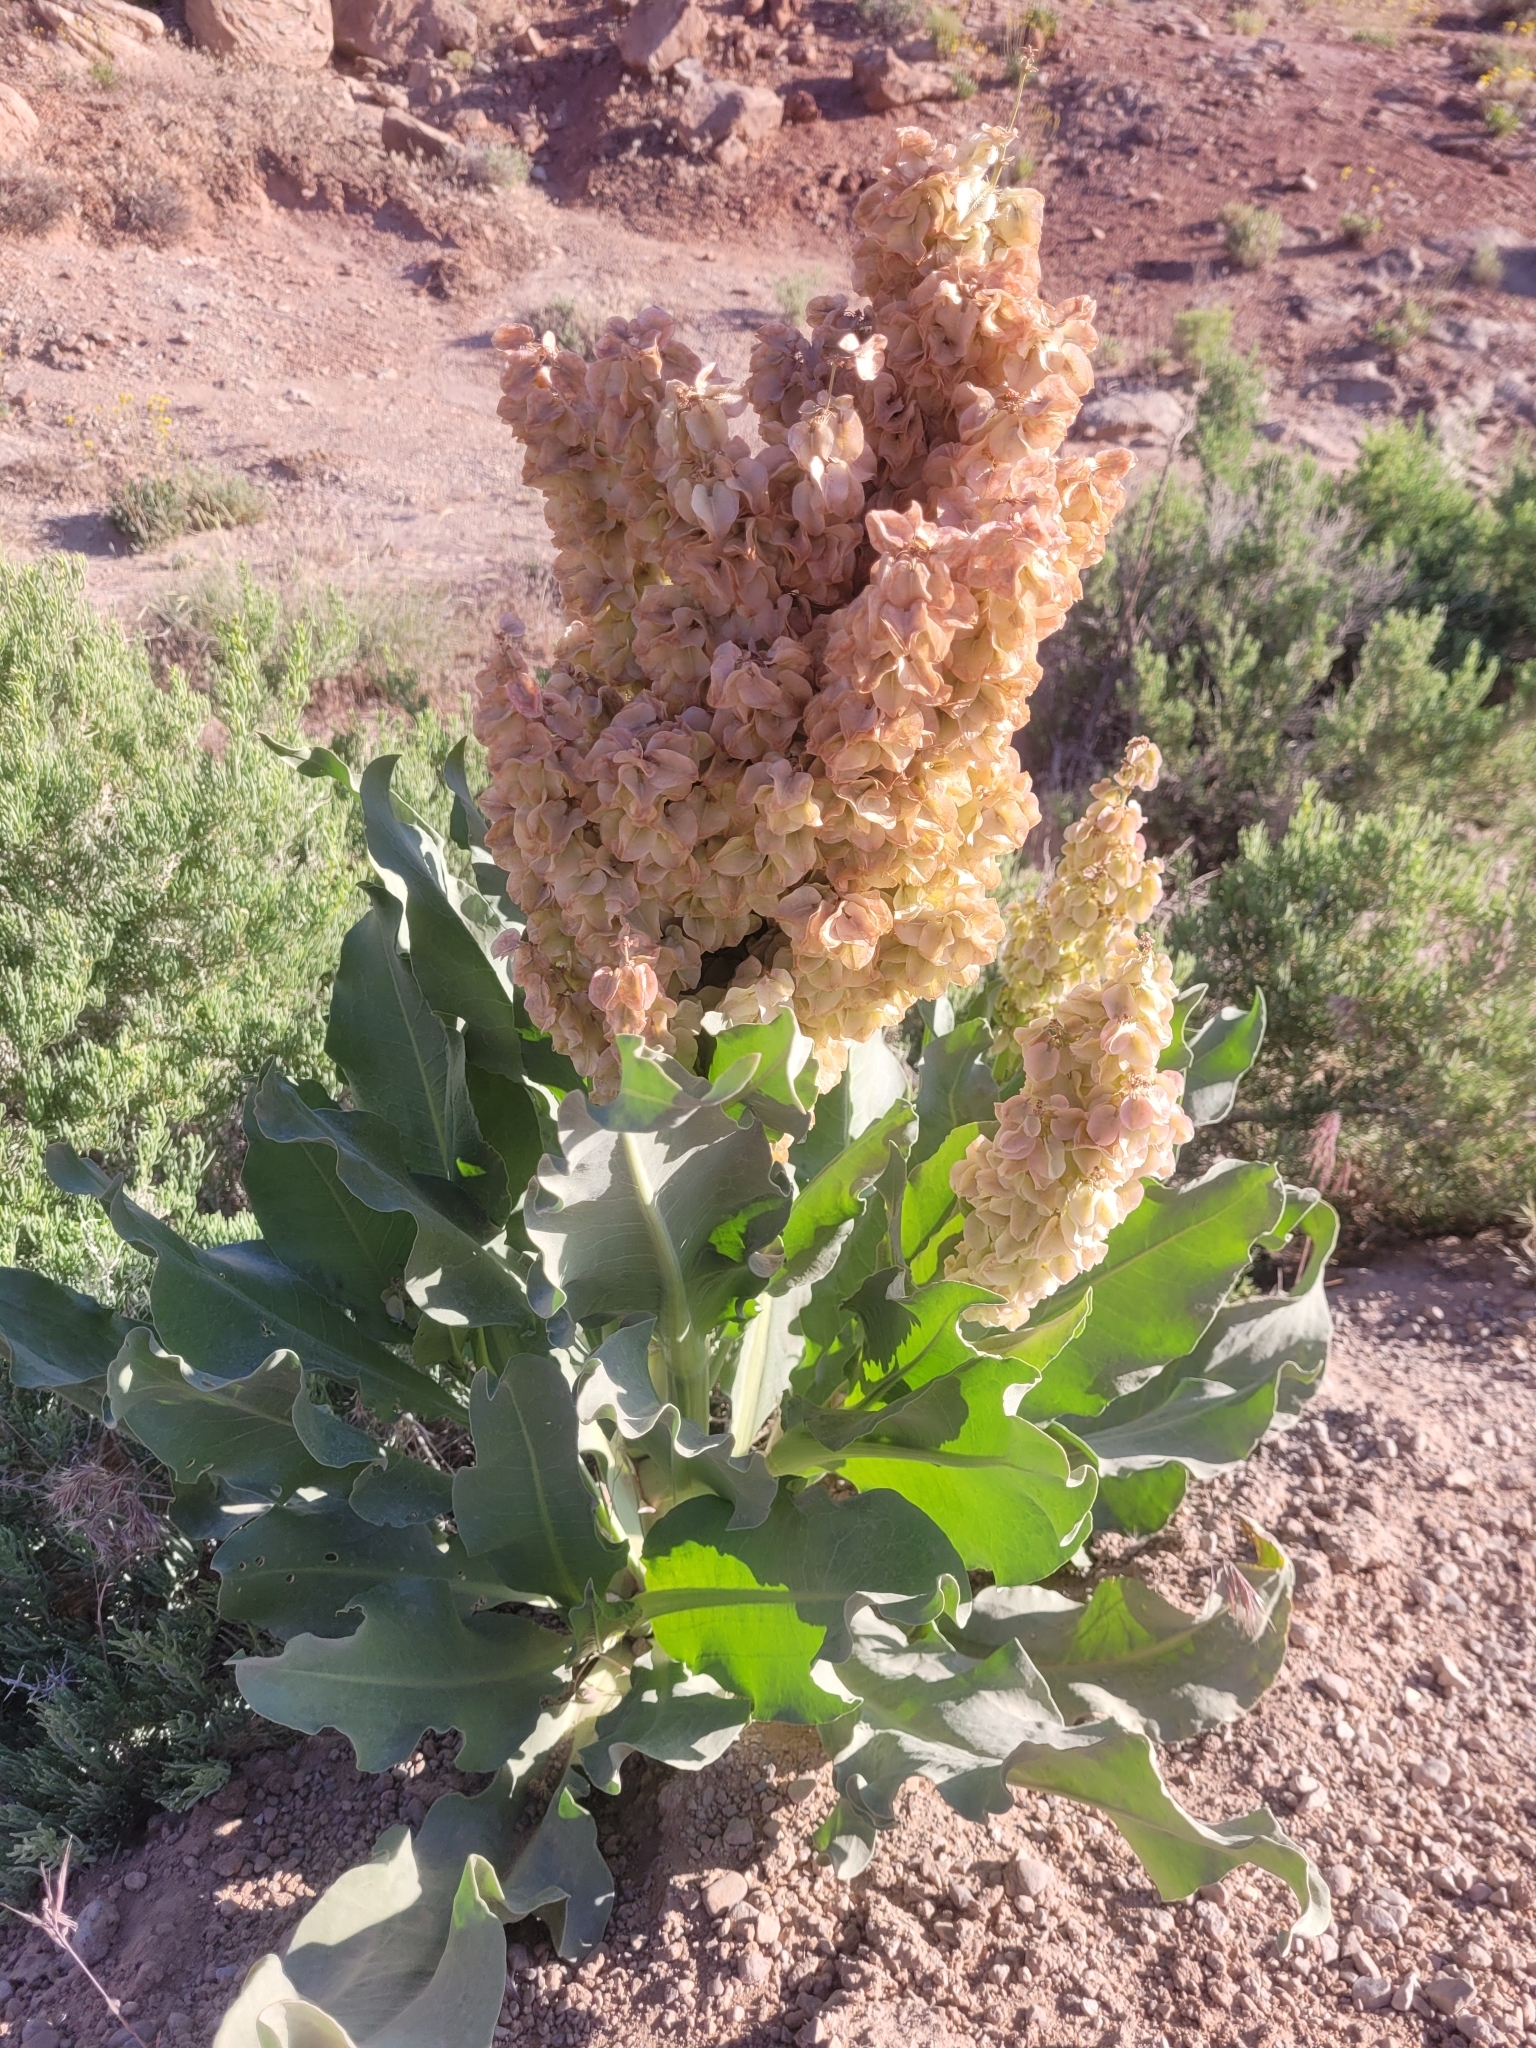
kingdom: Plantae
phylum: Tracheophyta
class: Magnoliopsida
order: Caryophyllales
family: Polygonaceae
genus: Rumex
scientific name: Rumex hymenosepalus
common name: Ganagra
